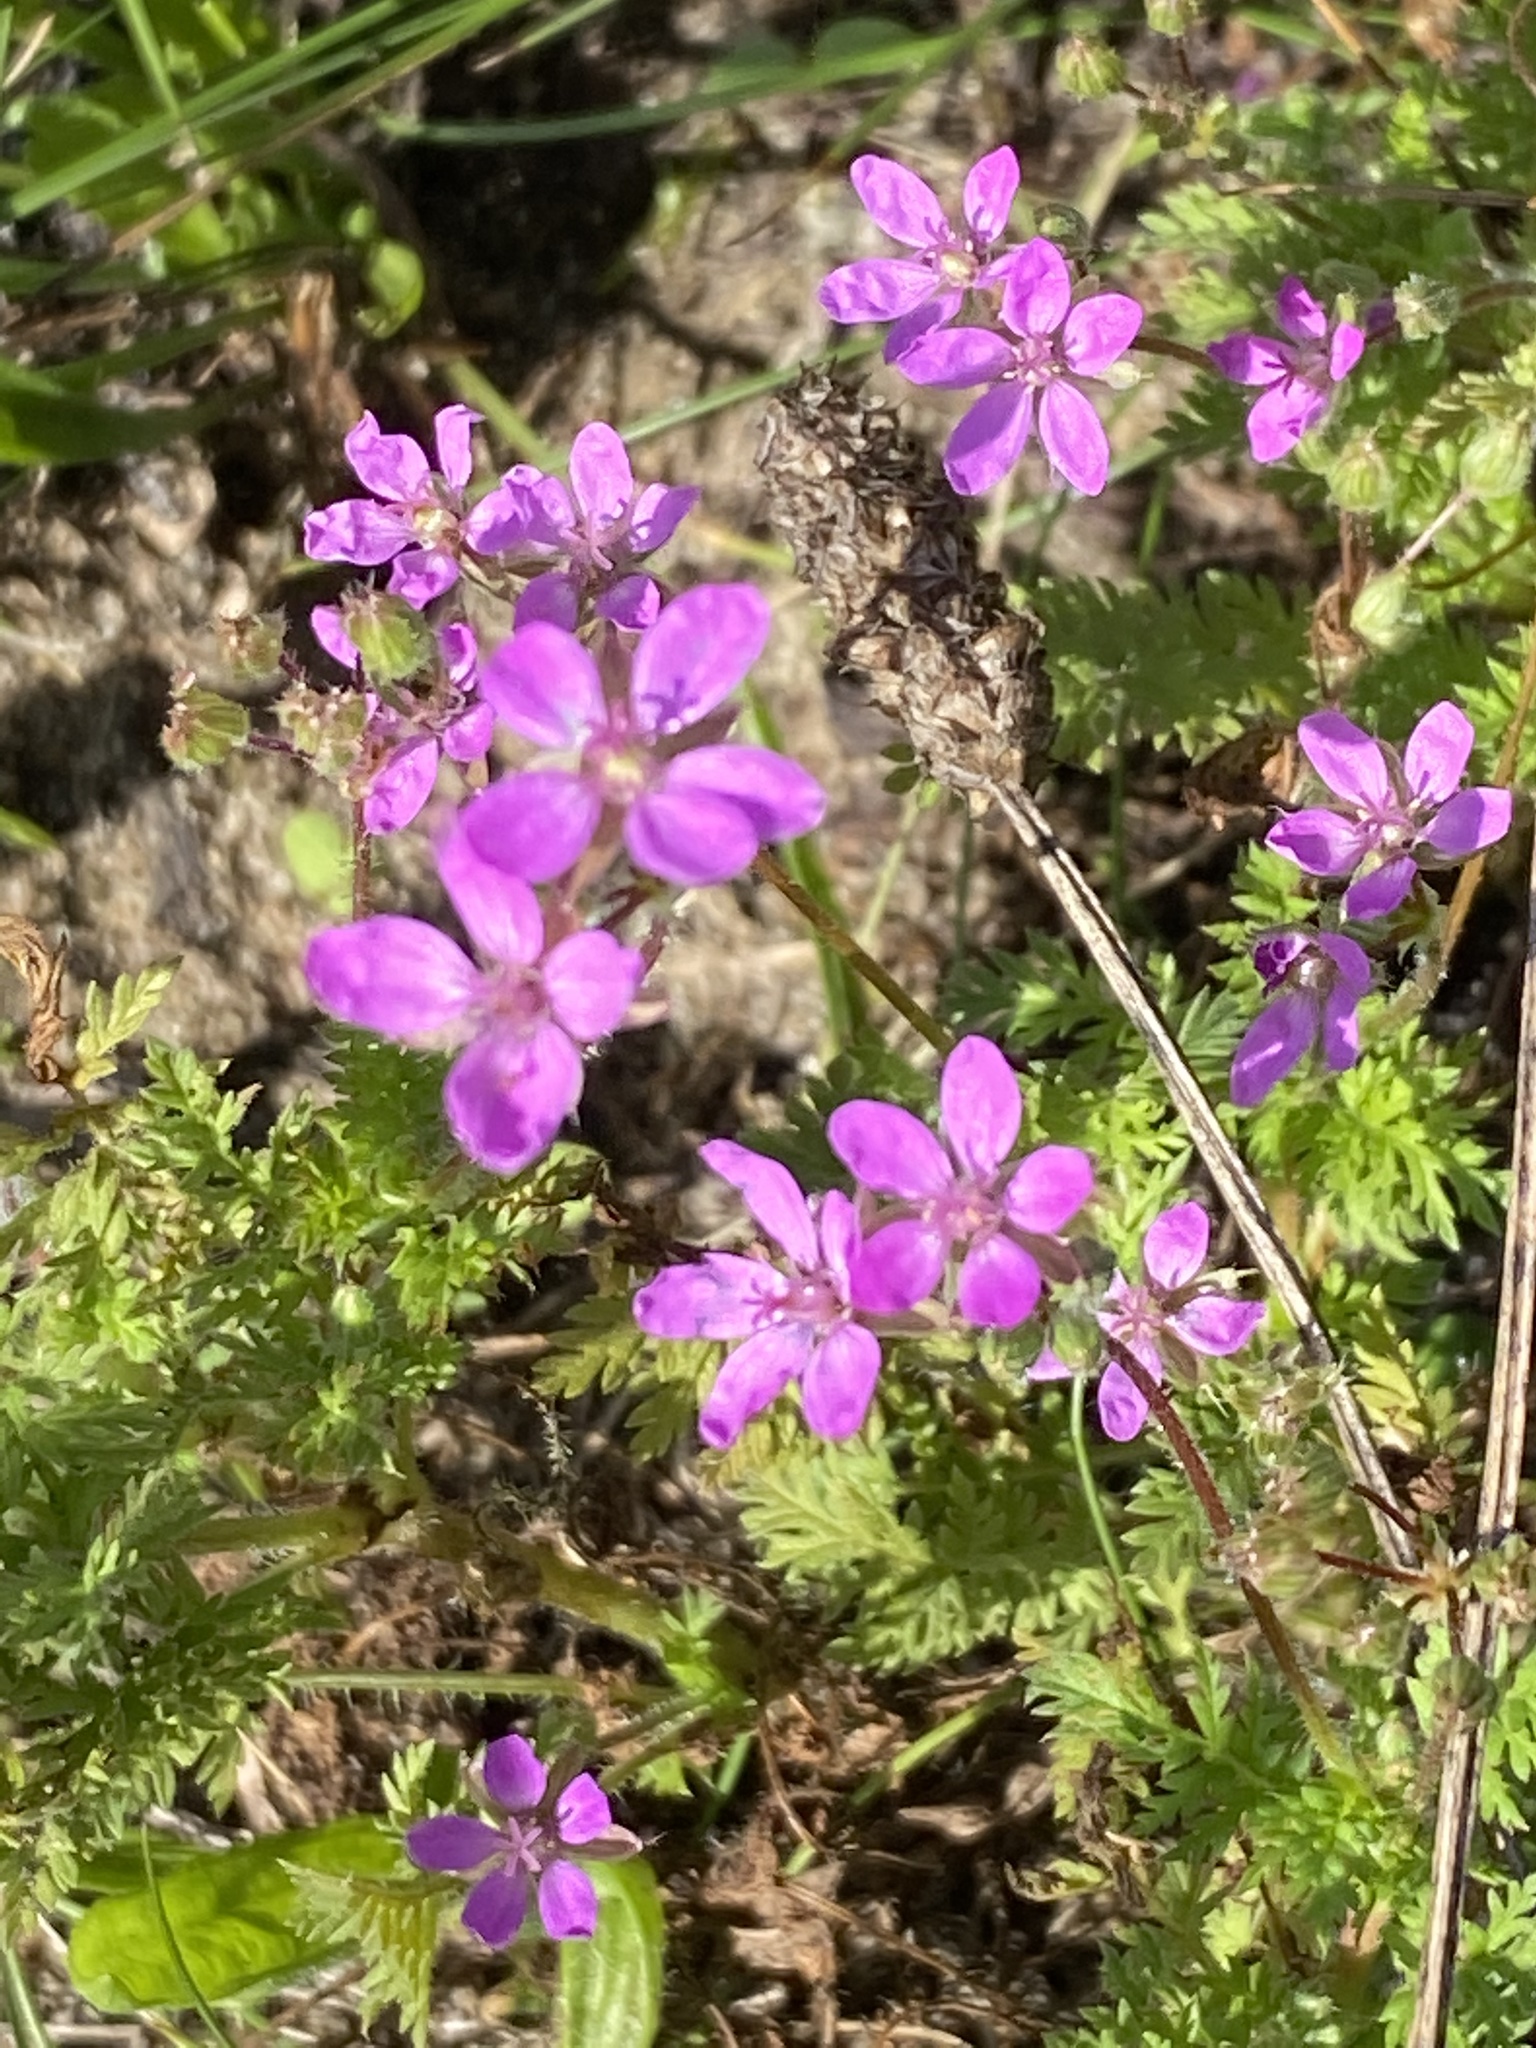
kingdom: Plantae
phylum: Tracheophyta
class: Magnoliopsida
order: Geraniales
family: Geraniaceae
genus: Erodium
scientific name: Erodium cicutarium
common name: Common stork's-bill
